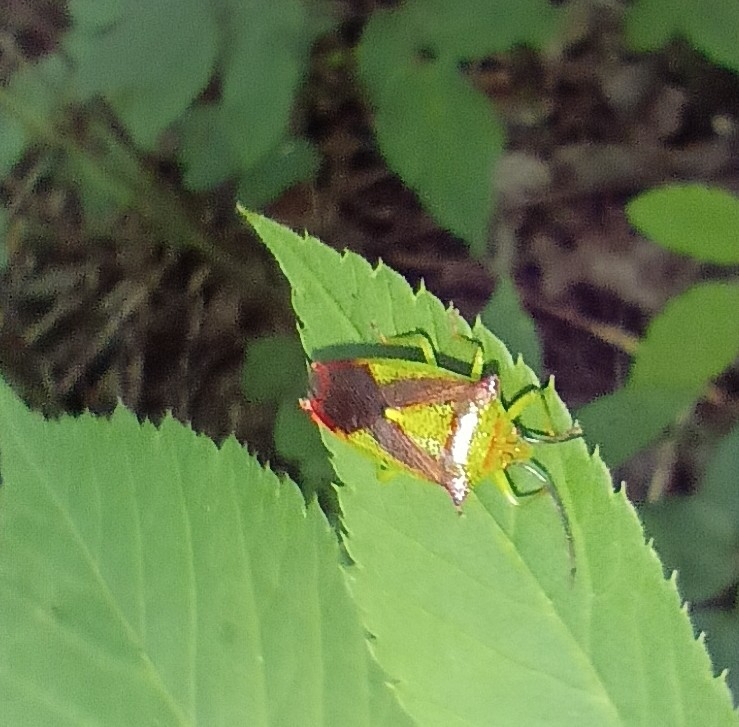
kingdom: Animalia
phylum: Arthropoda
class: Insecta
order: Hemiptera
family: Acanthosomatidae
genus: Acanthosoma
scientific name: Acanthosoma haemorrhoidale
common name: Hawthorn shieldbug
